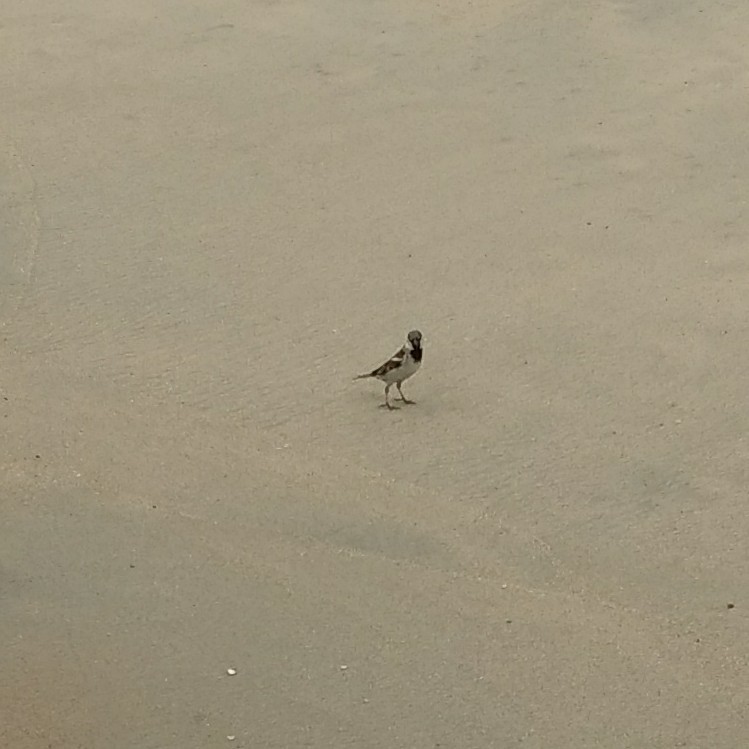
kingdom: Animalia
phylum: Chordata
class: Aves
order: Passeriformes
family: Passeridae
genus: Passer
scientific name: Passer domesticus
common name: House sparrow
